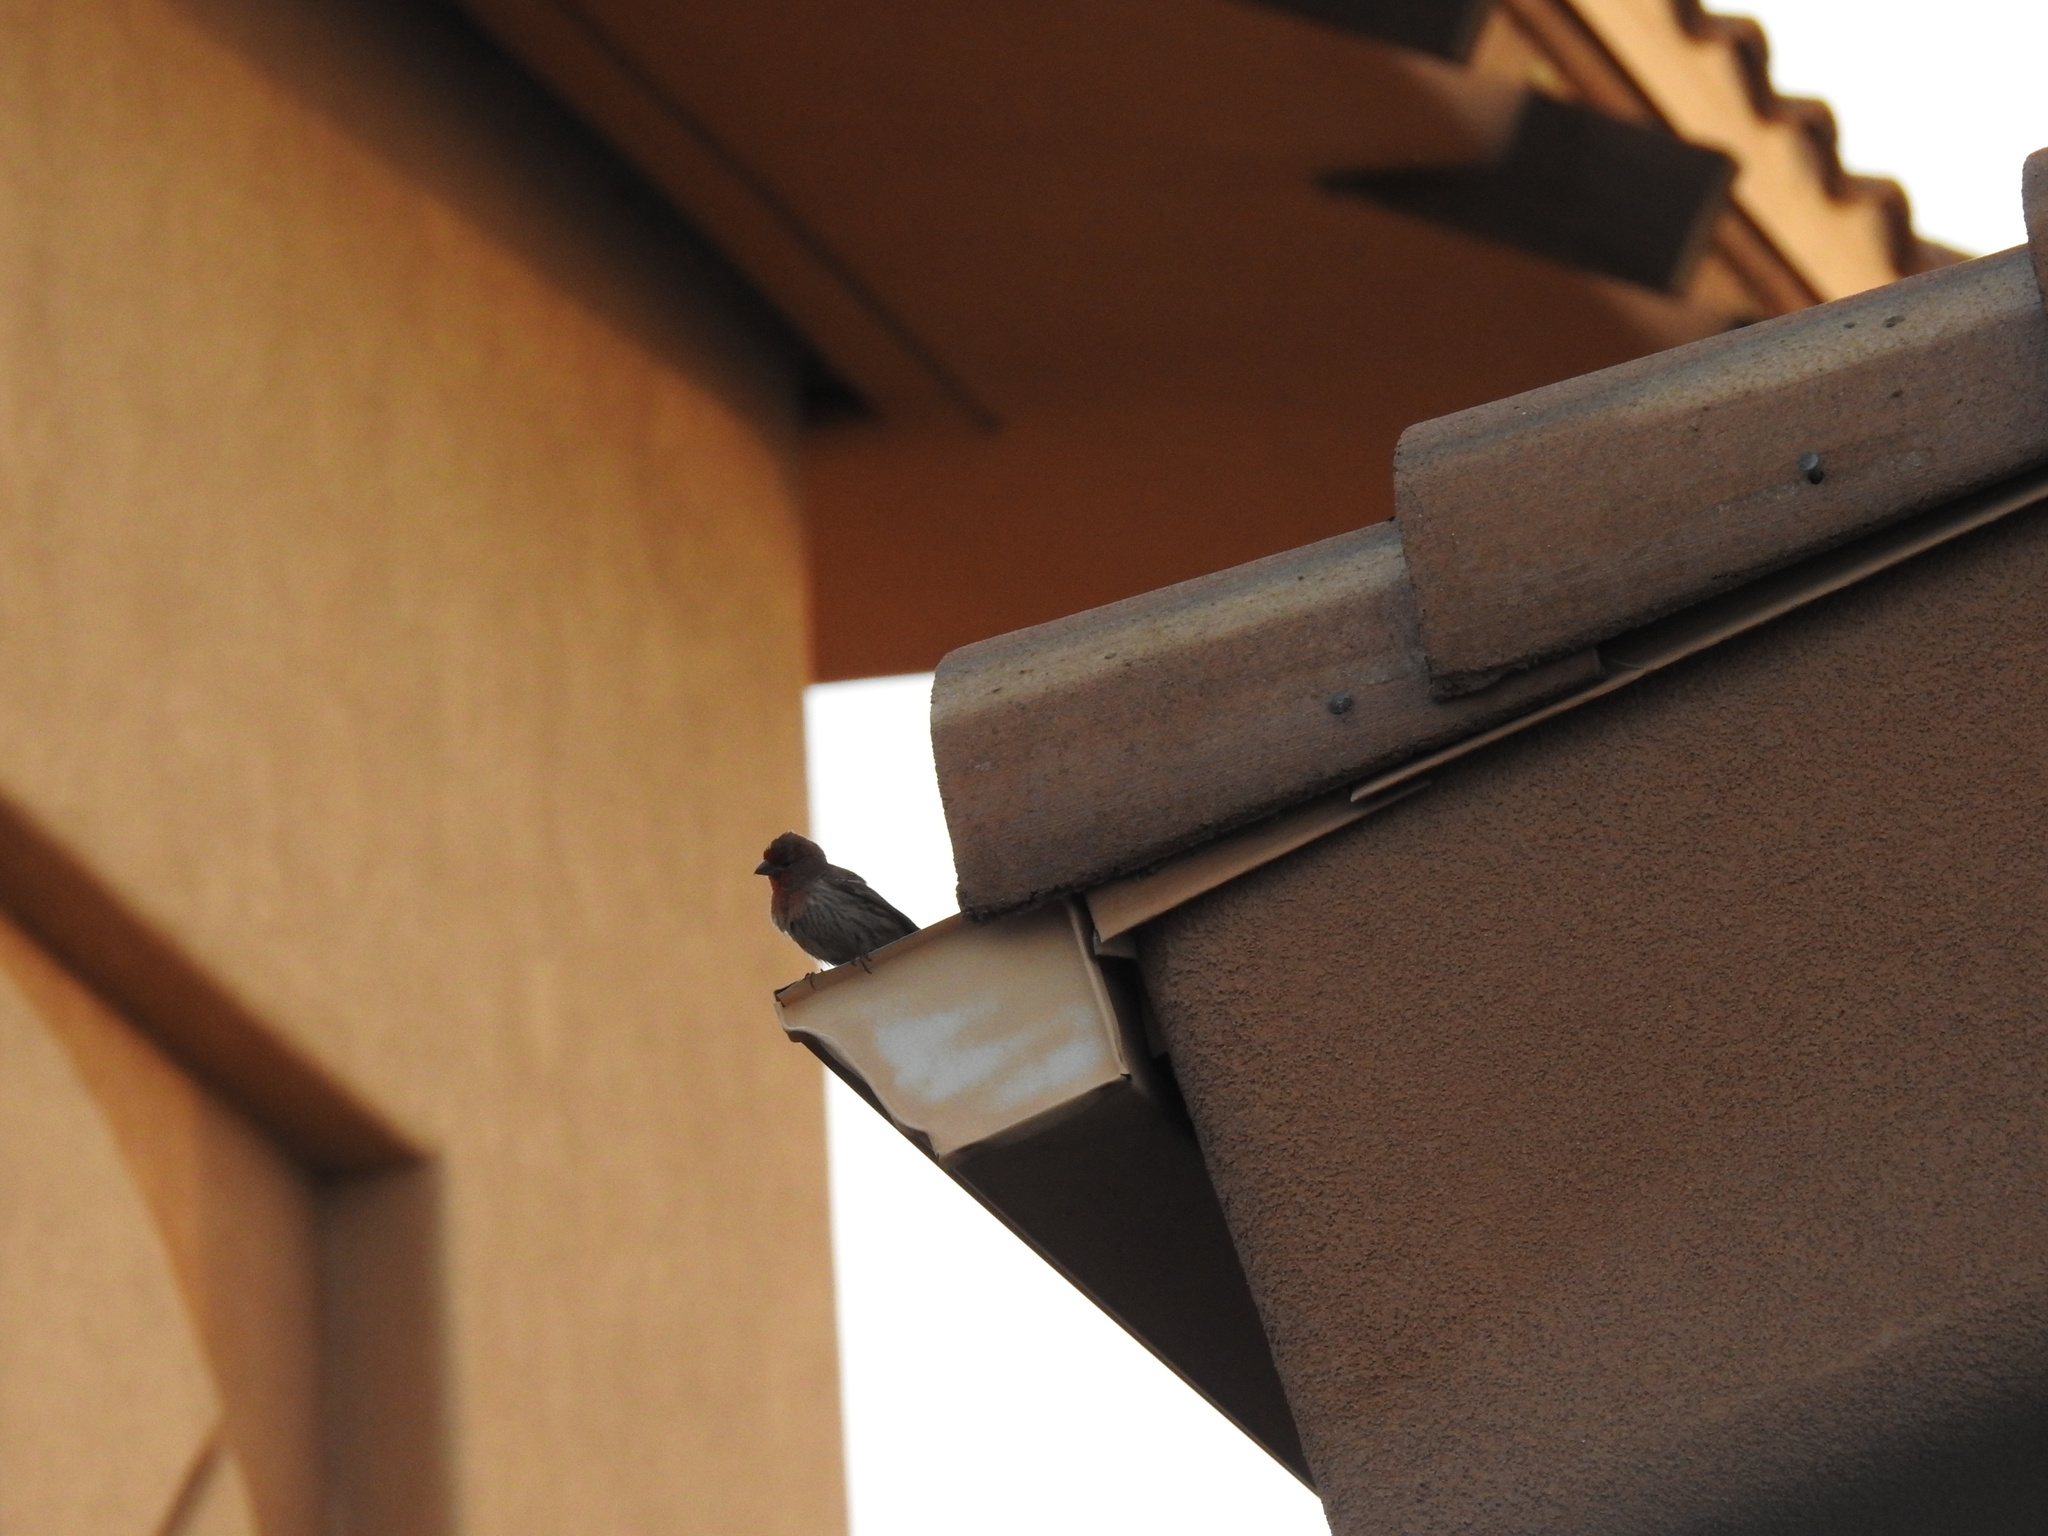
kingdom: Animalia
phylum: Chordata
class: Aves
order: Passeriformes
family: Fringillidae
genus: Haemorhous
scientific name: Haemorhous mexicanus
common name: House finch
